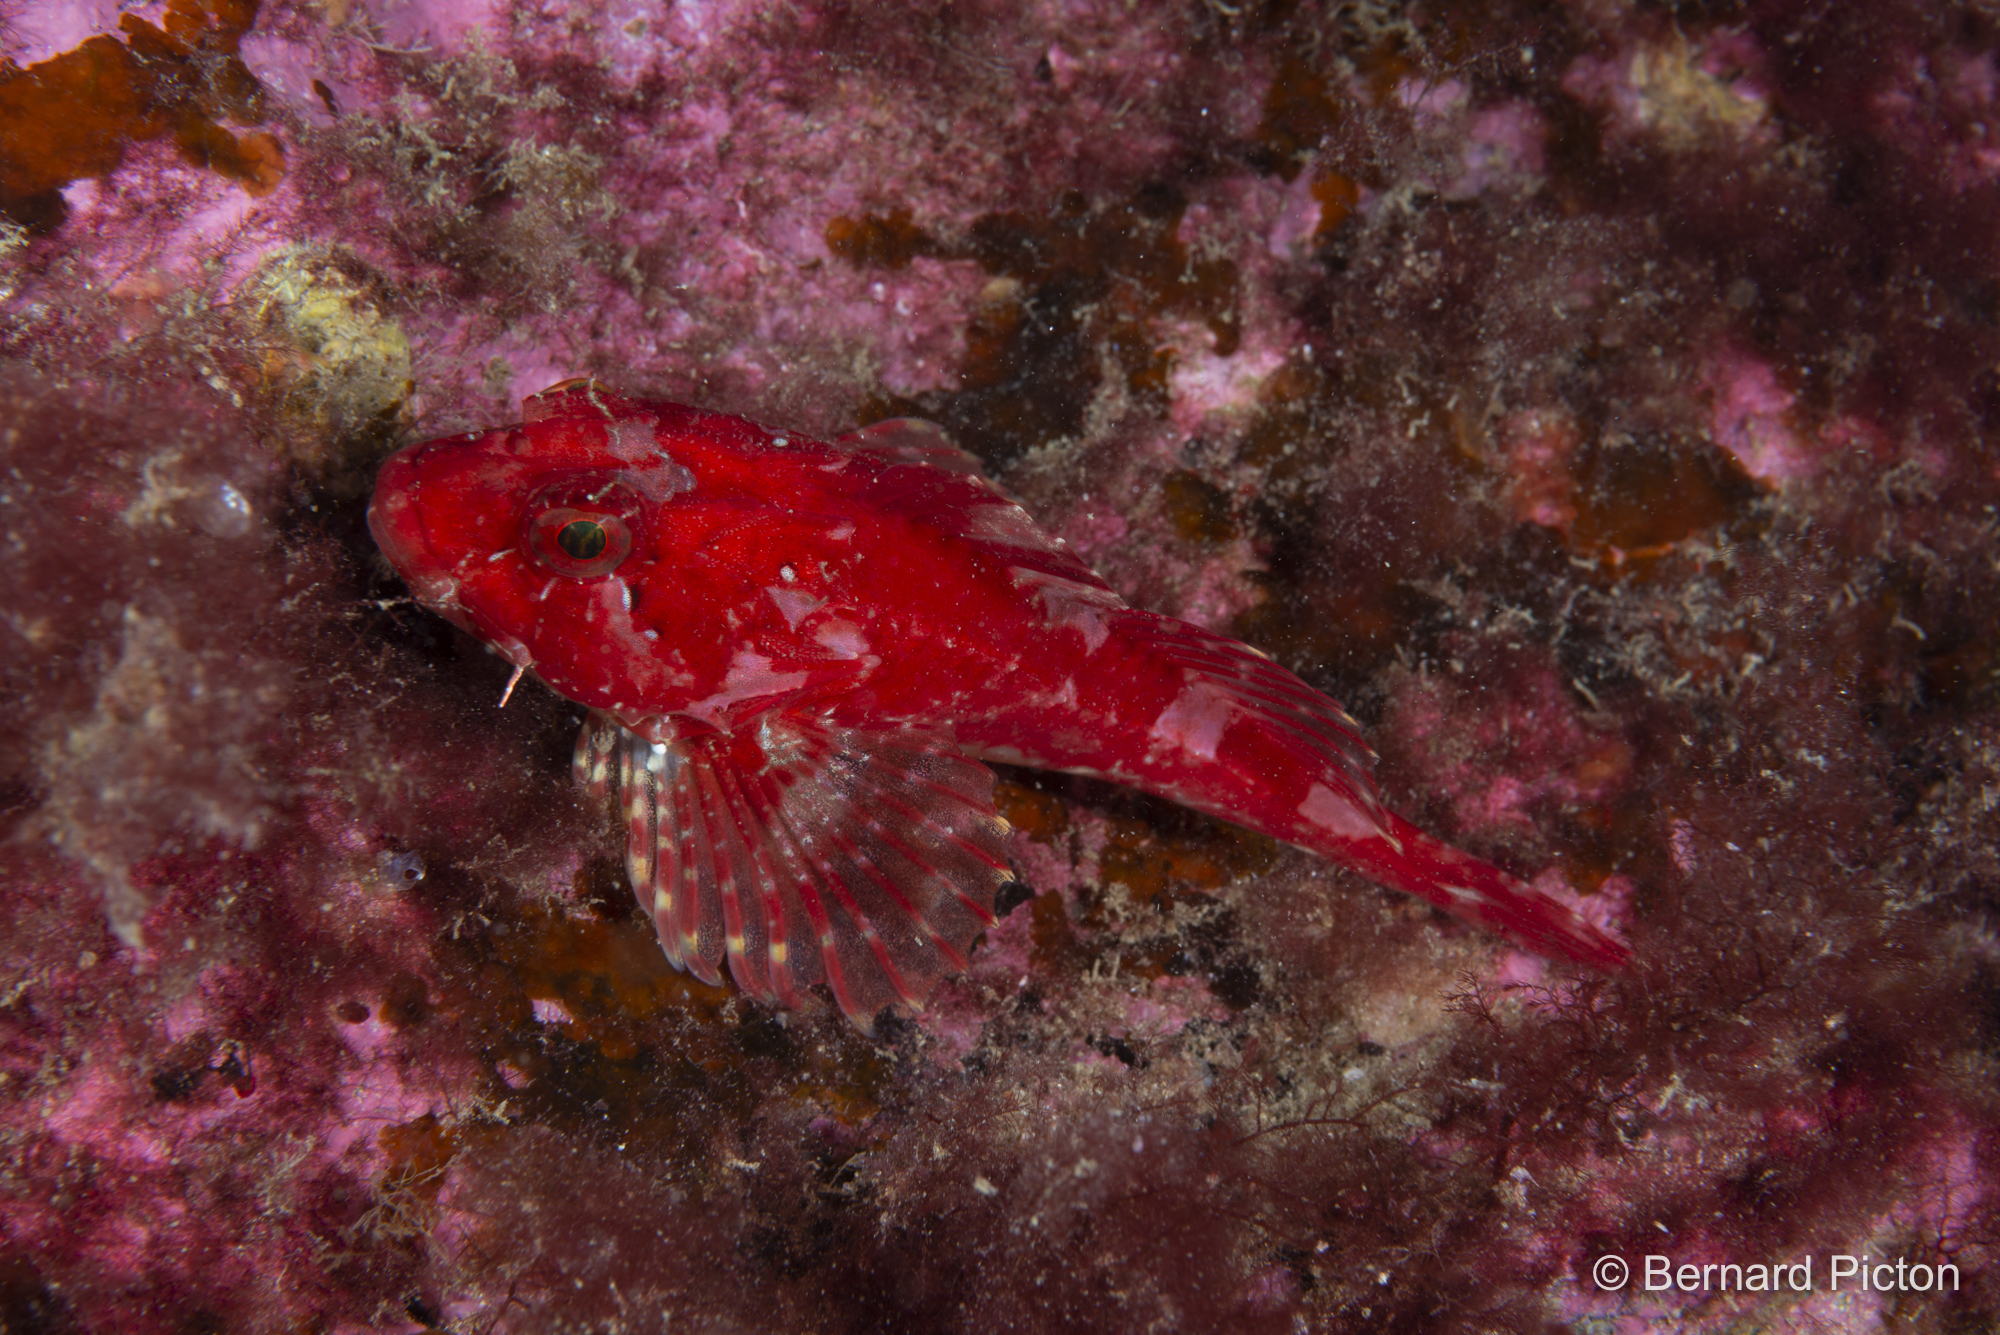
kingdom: Animalia
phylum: Chordata
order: Scorpaeniformes
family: Cottidae
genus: Taurulus
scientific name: Taurulus bubalis
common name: Sea scorpion
